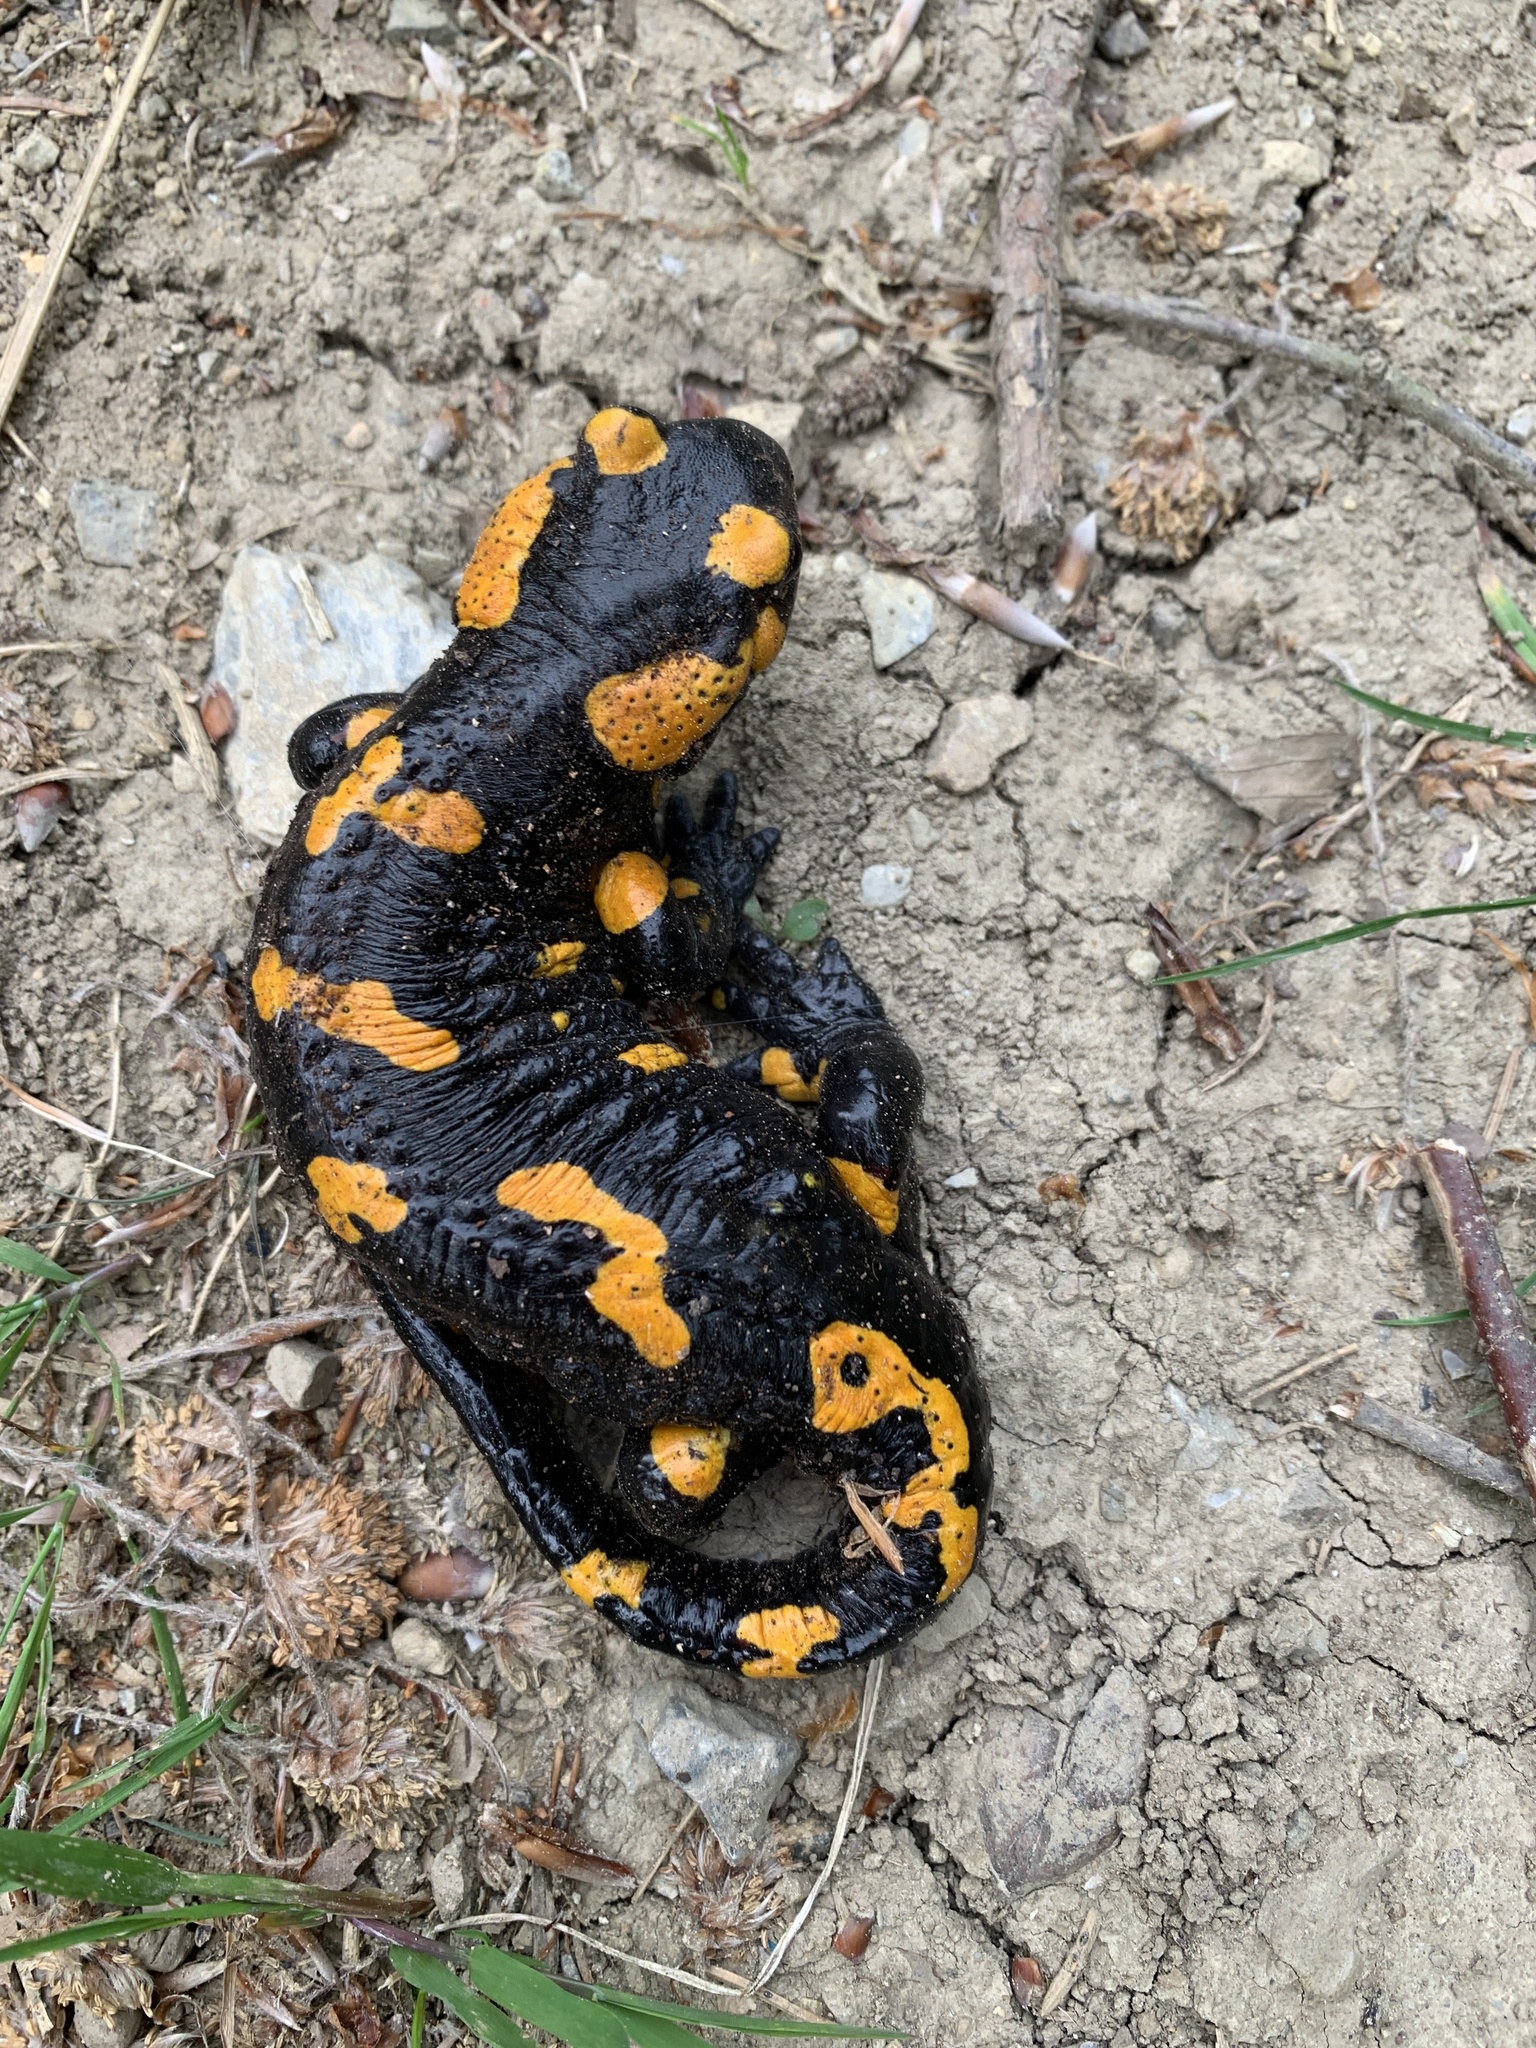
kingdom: Animalia
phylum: Chordata
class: Amphibia
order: Caudata
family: Salamandridae
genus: Salamandra
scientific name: Salamandra salamandra
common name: Fire salamander
